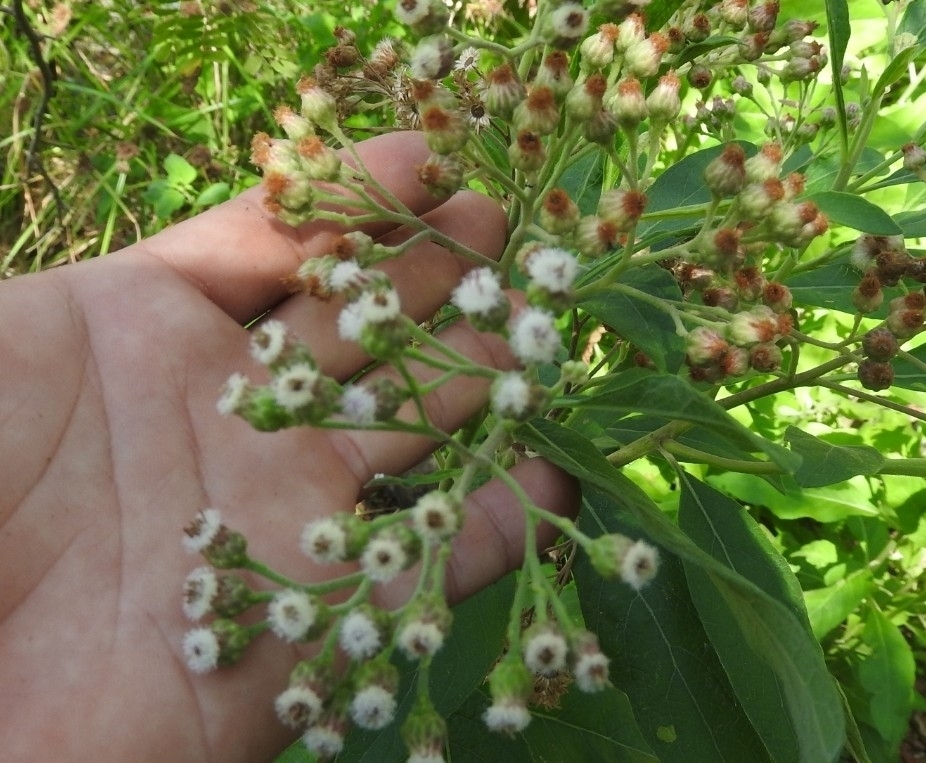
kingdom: Plantae
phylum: Tracheophyta
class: Magnoliopsida
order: Asterales
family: Asteraceae
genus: Pluchea
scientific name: Pluchea carolinensis
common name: Marsh fleabane
